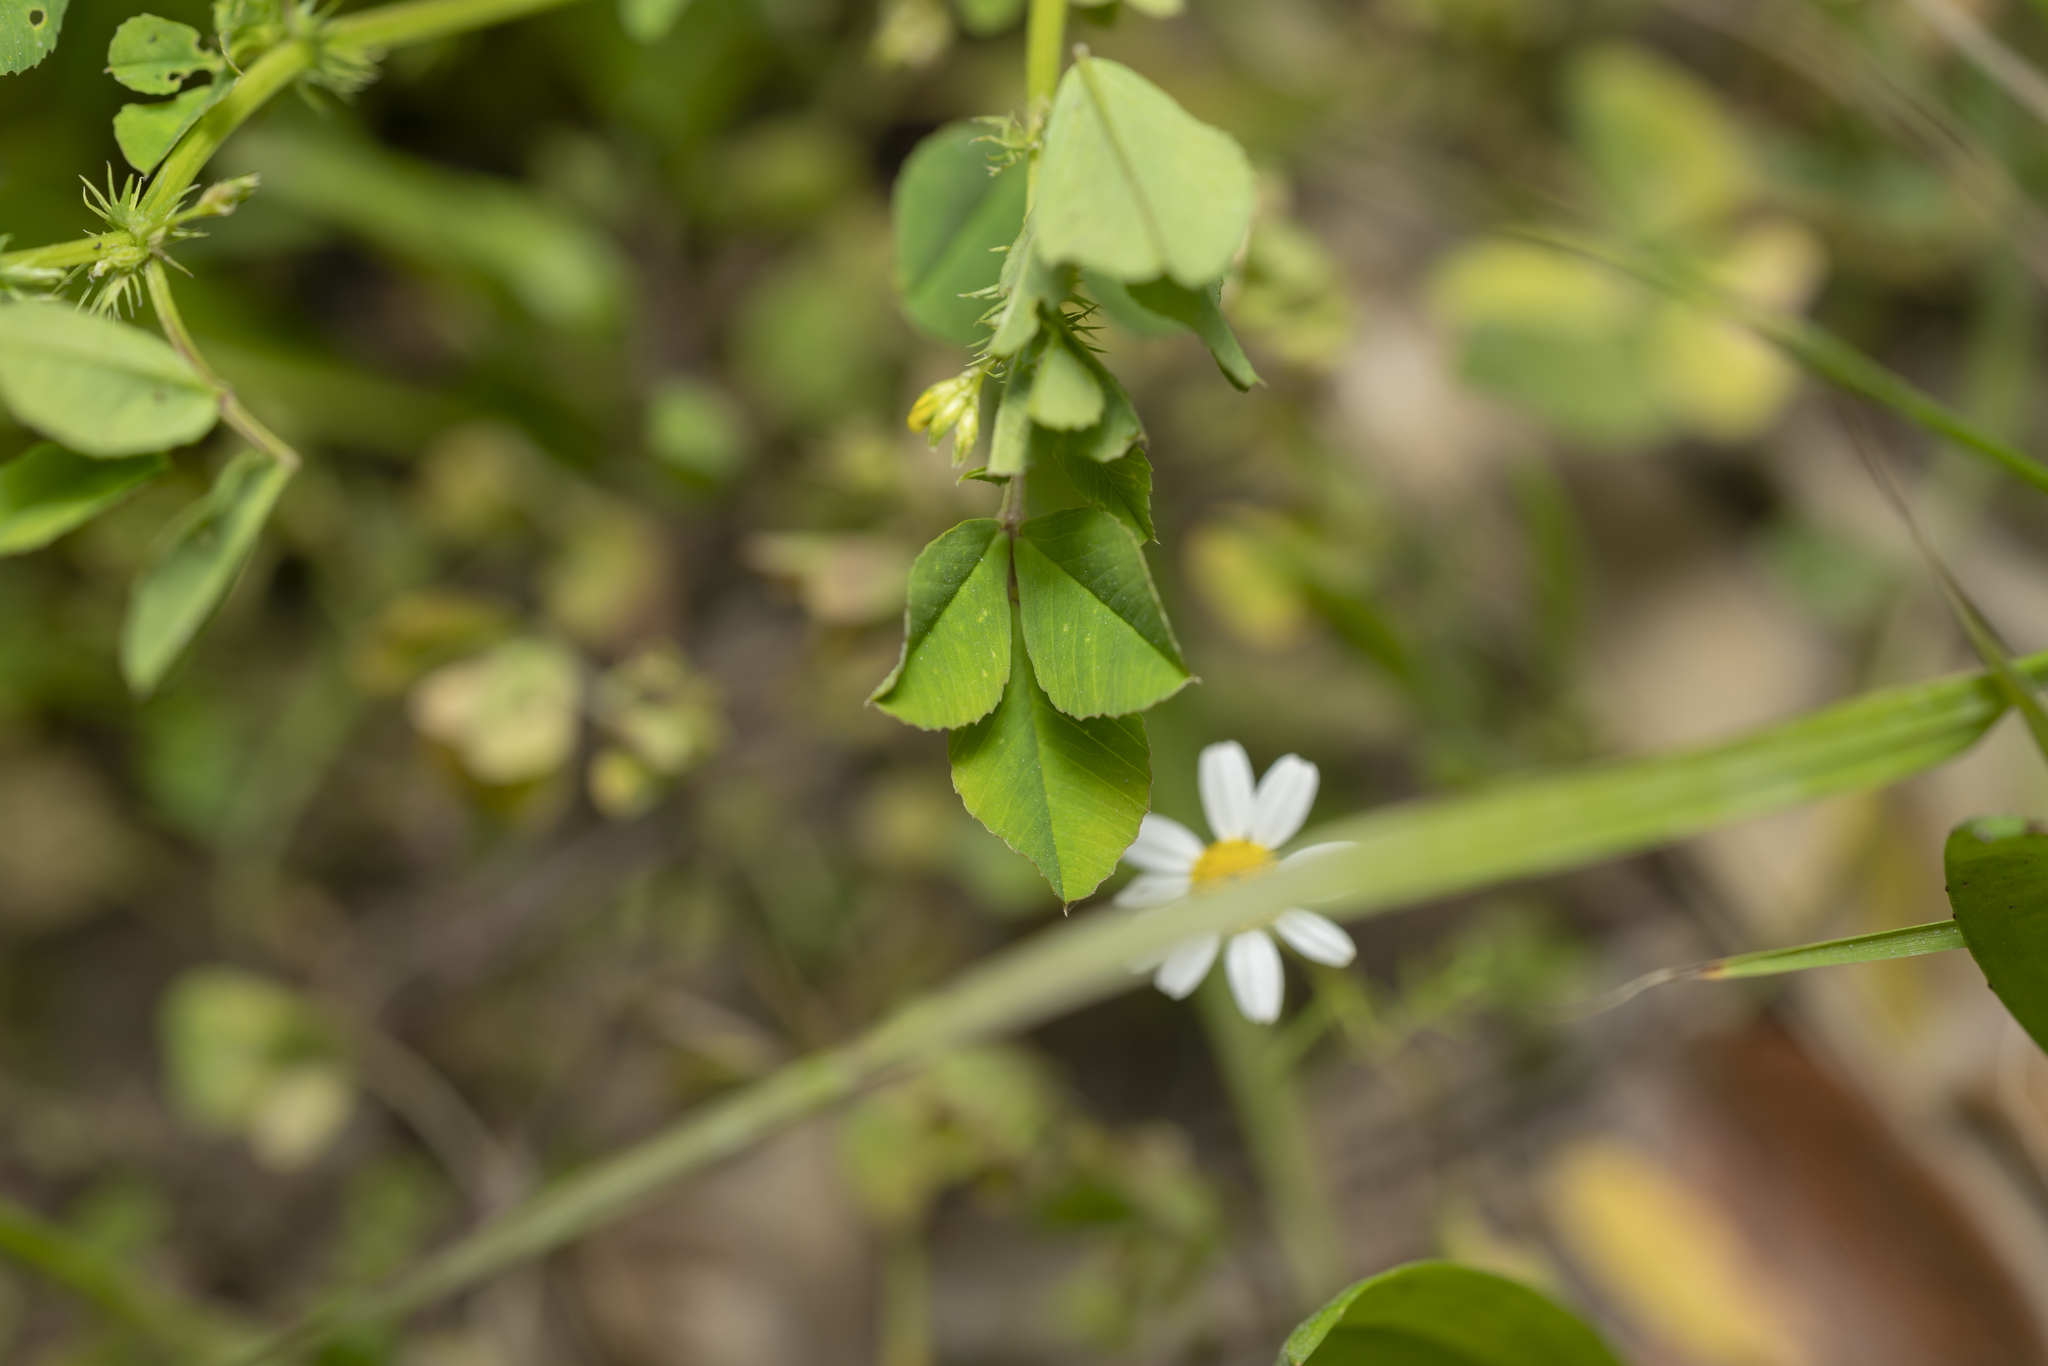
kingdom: Plantae
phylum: Tracheophyta
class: Magnoliopsida
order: Fabales
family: Fabaceae
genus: Medicago
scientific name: Medicago polymorpha
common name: Burclover
